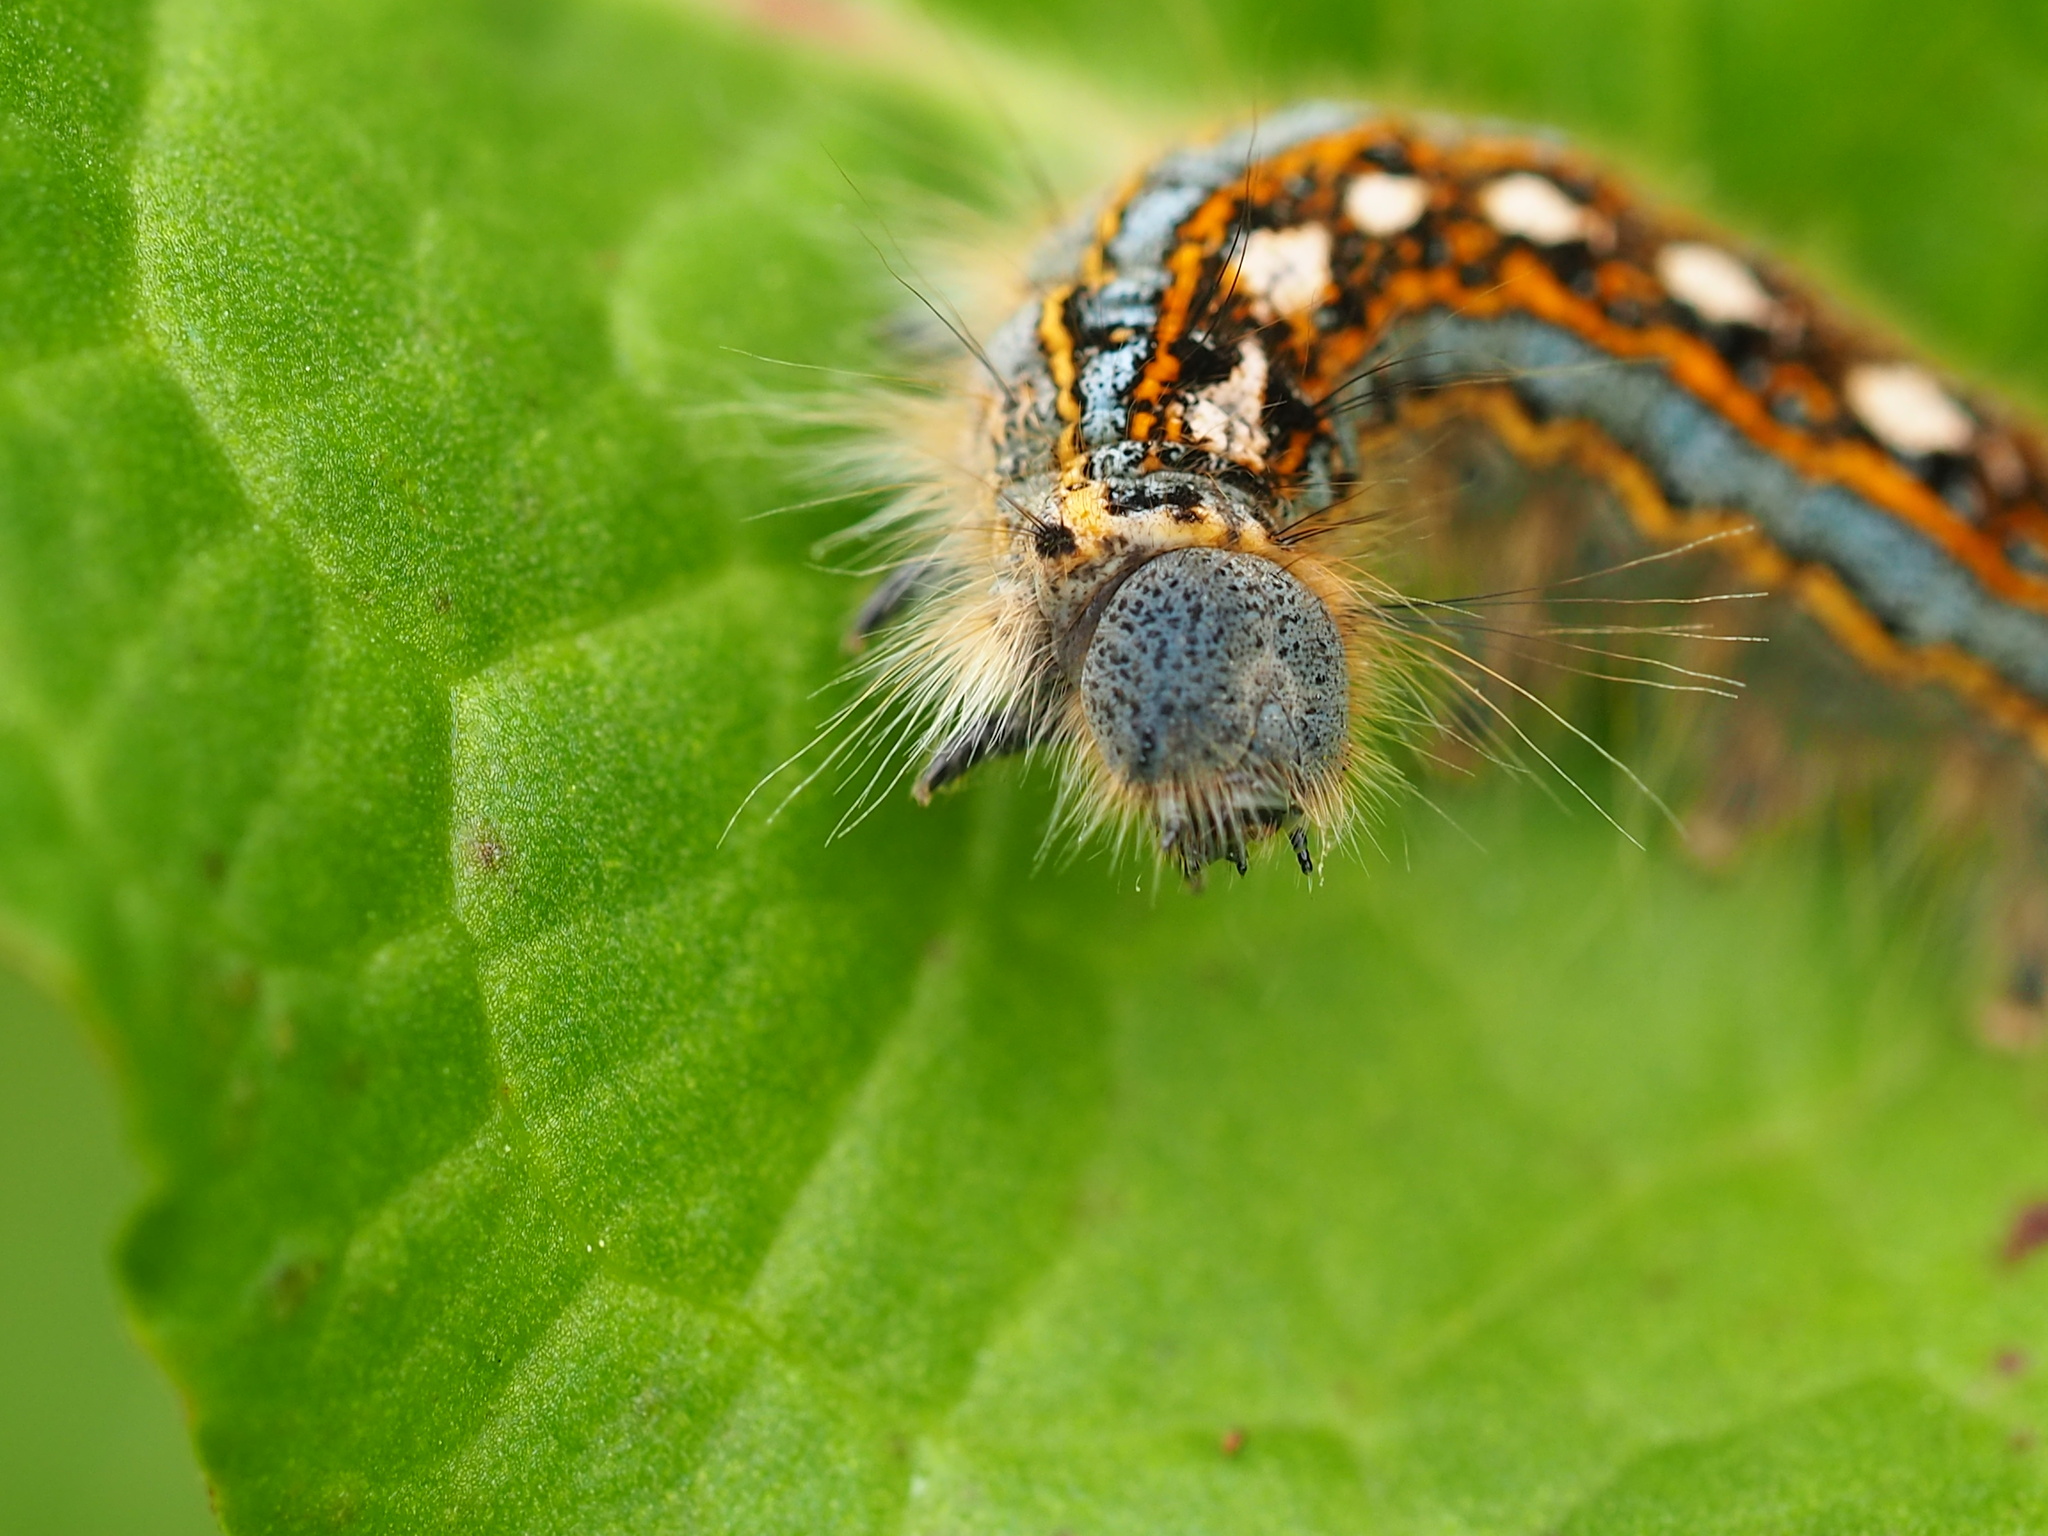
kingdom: Animalia
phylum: Arthropoda
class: Insecta
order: Lepidoptera
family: Lasiocampidae
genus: Malacosoma
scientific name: Malacosoma disstria
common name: Forest tent caterpillar
